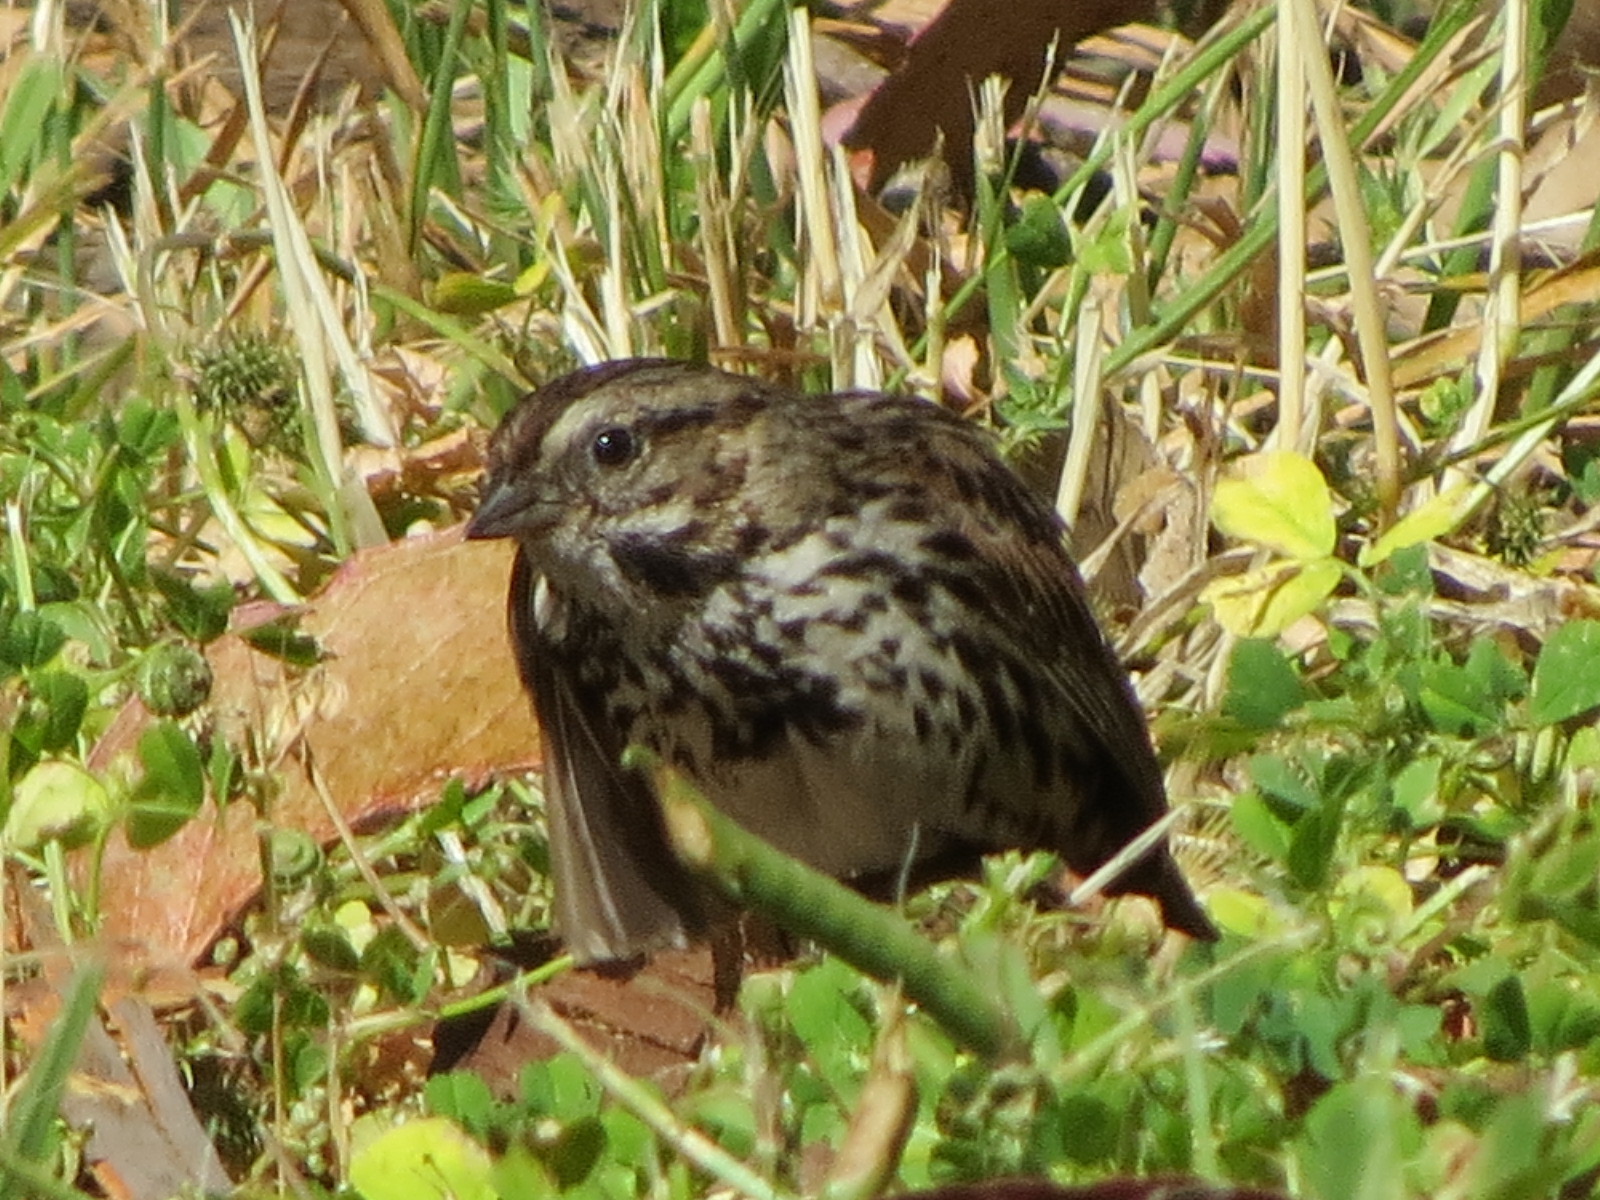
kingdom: Animalia
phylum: Chordata
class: Aves
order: Passeriformes
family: Passerellidae
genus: Melospiza
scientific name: Melospiza melodia
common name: Song sparrow
